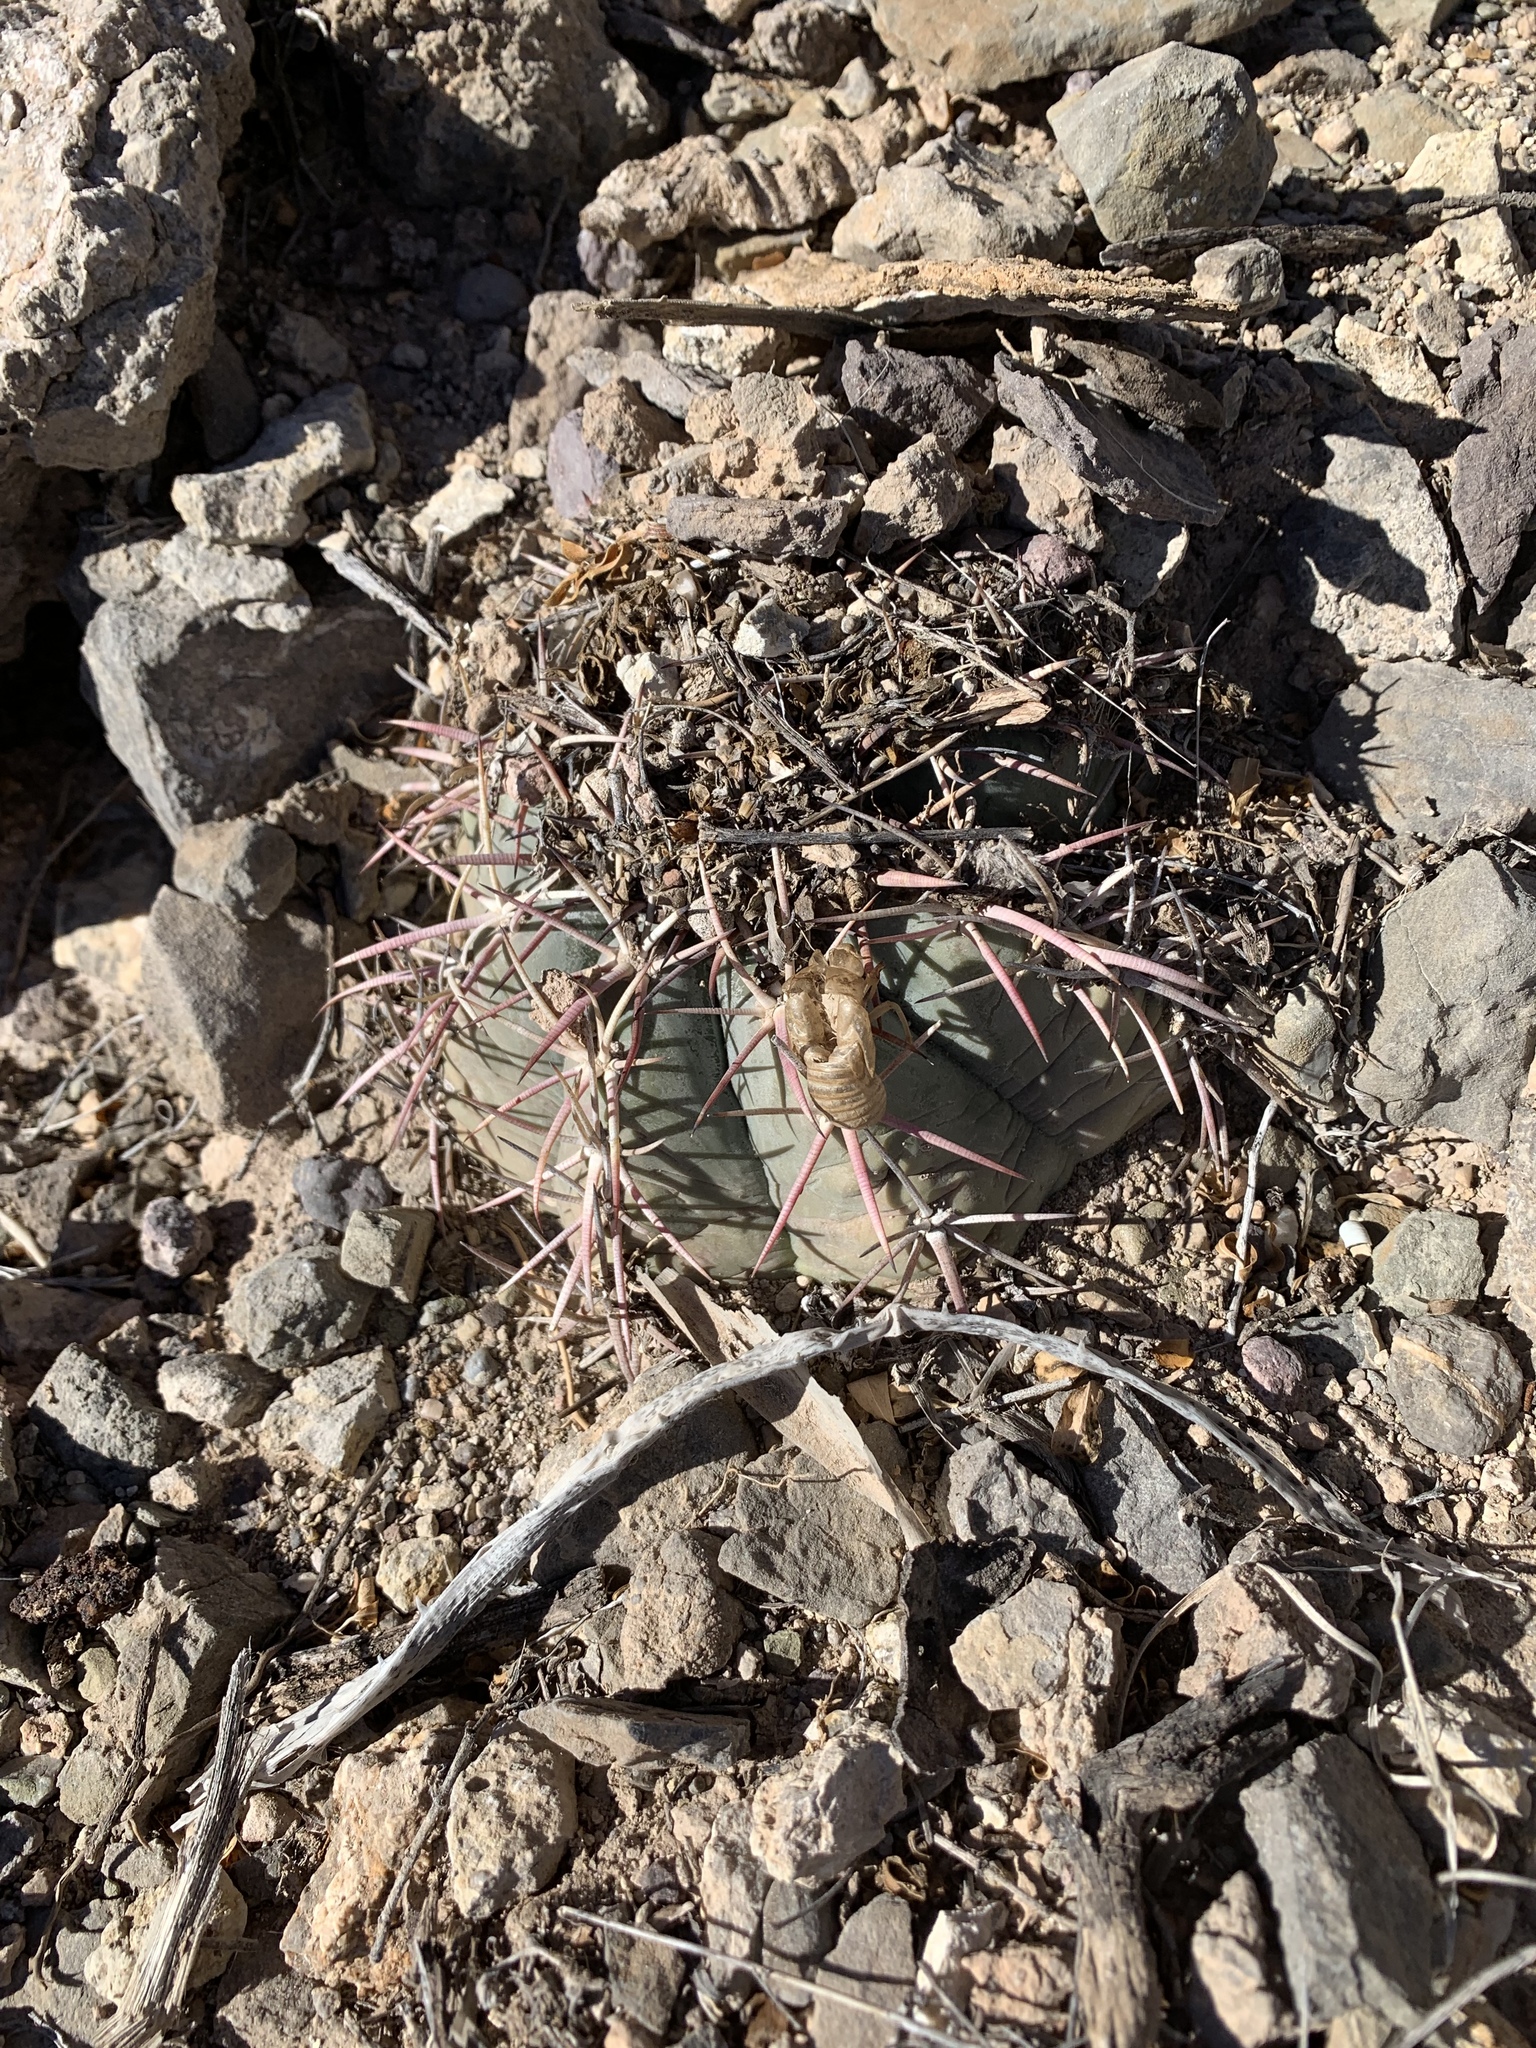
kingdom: Plantae
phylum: Tracheophyta
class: Magnoliopsida
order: Caryophyllales
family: Cactaceae
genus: Echinocactus
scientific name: Echinocactus horizonthalonius
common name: Devilshead
